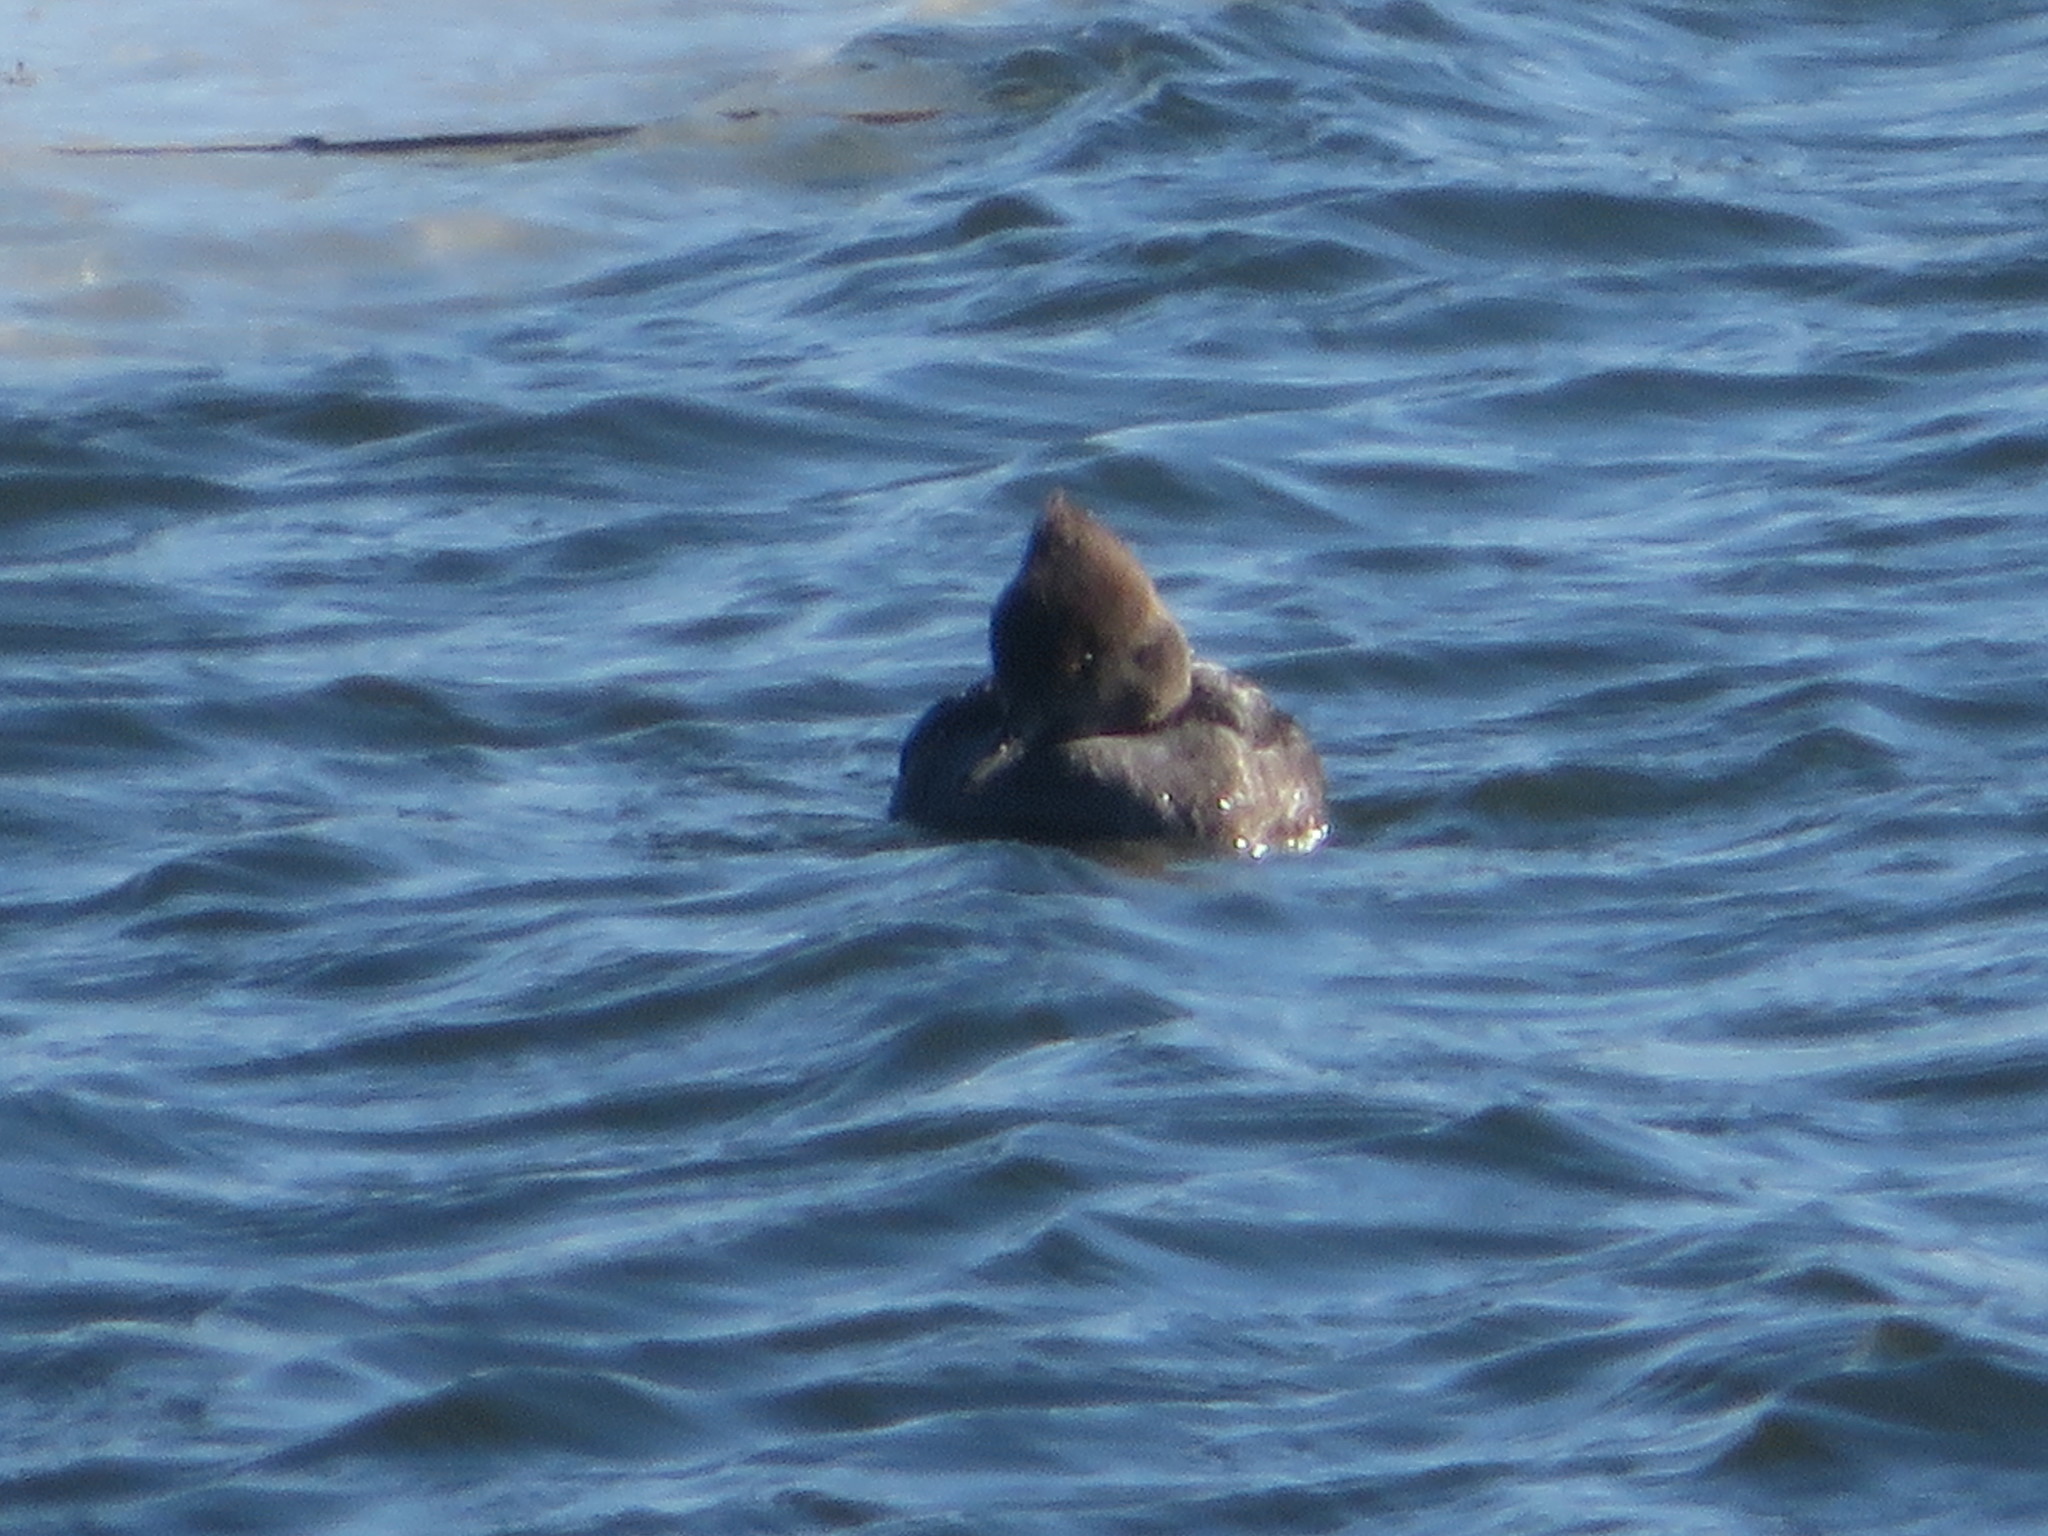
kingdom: Animalia
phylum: Chordata
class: Aves
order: Anseriformes
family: Anatidae
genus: Lophodytes
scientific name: Lophodytes cucullatus
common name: Hooded merganser
